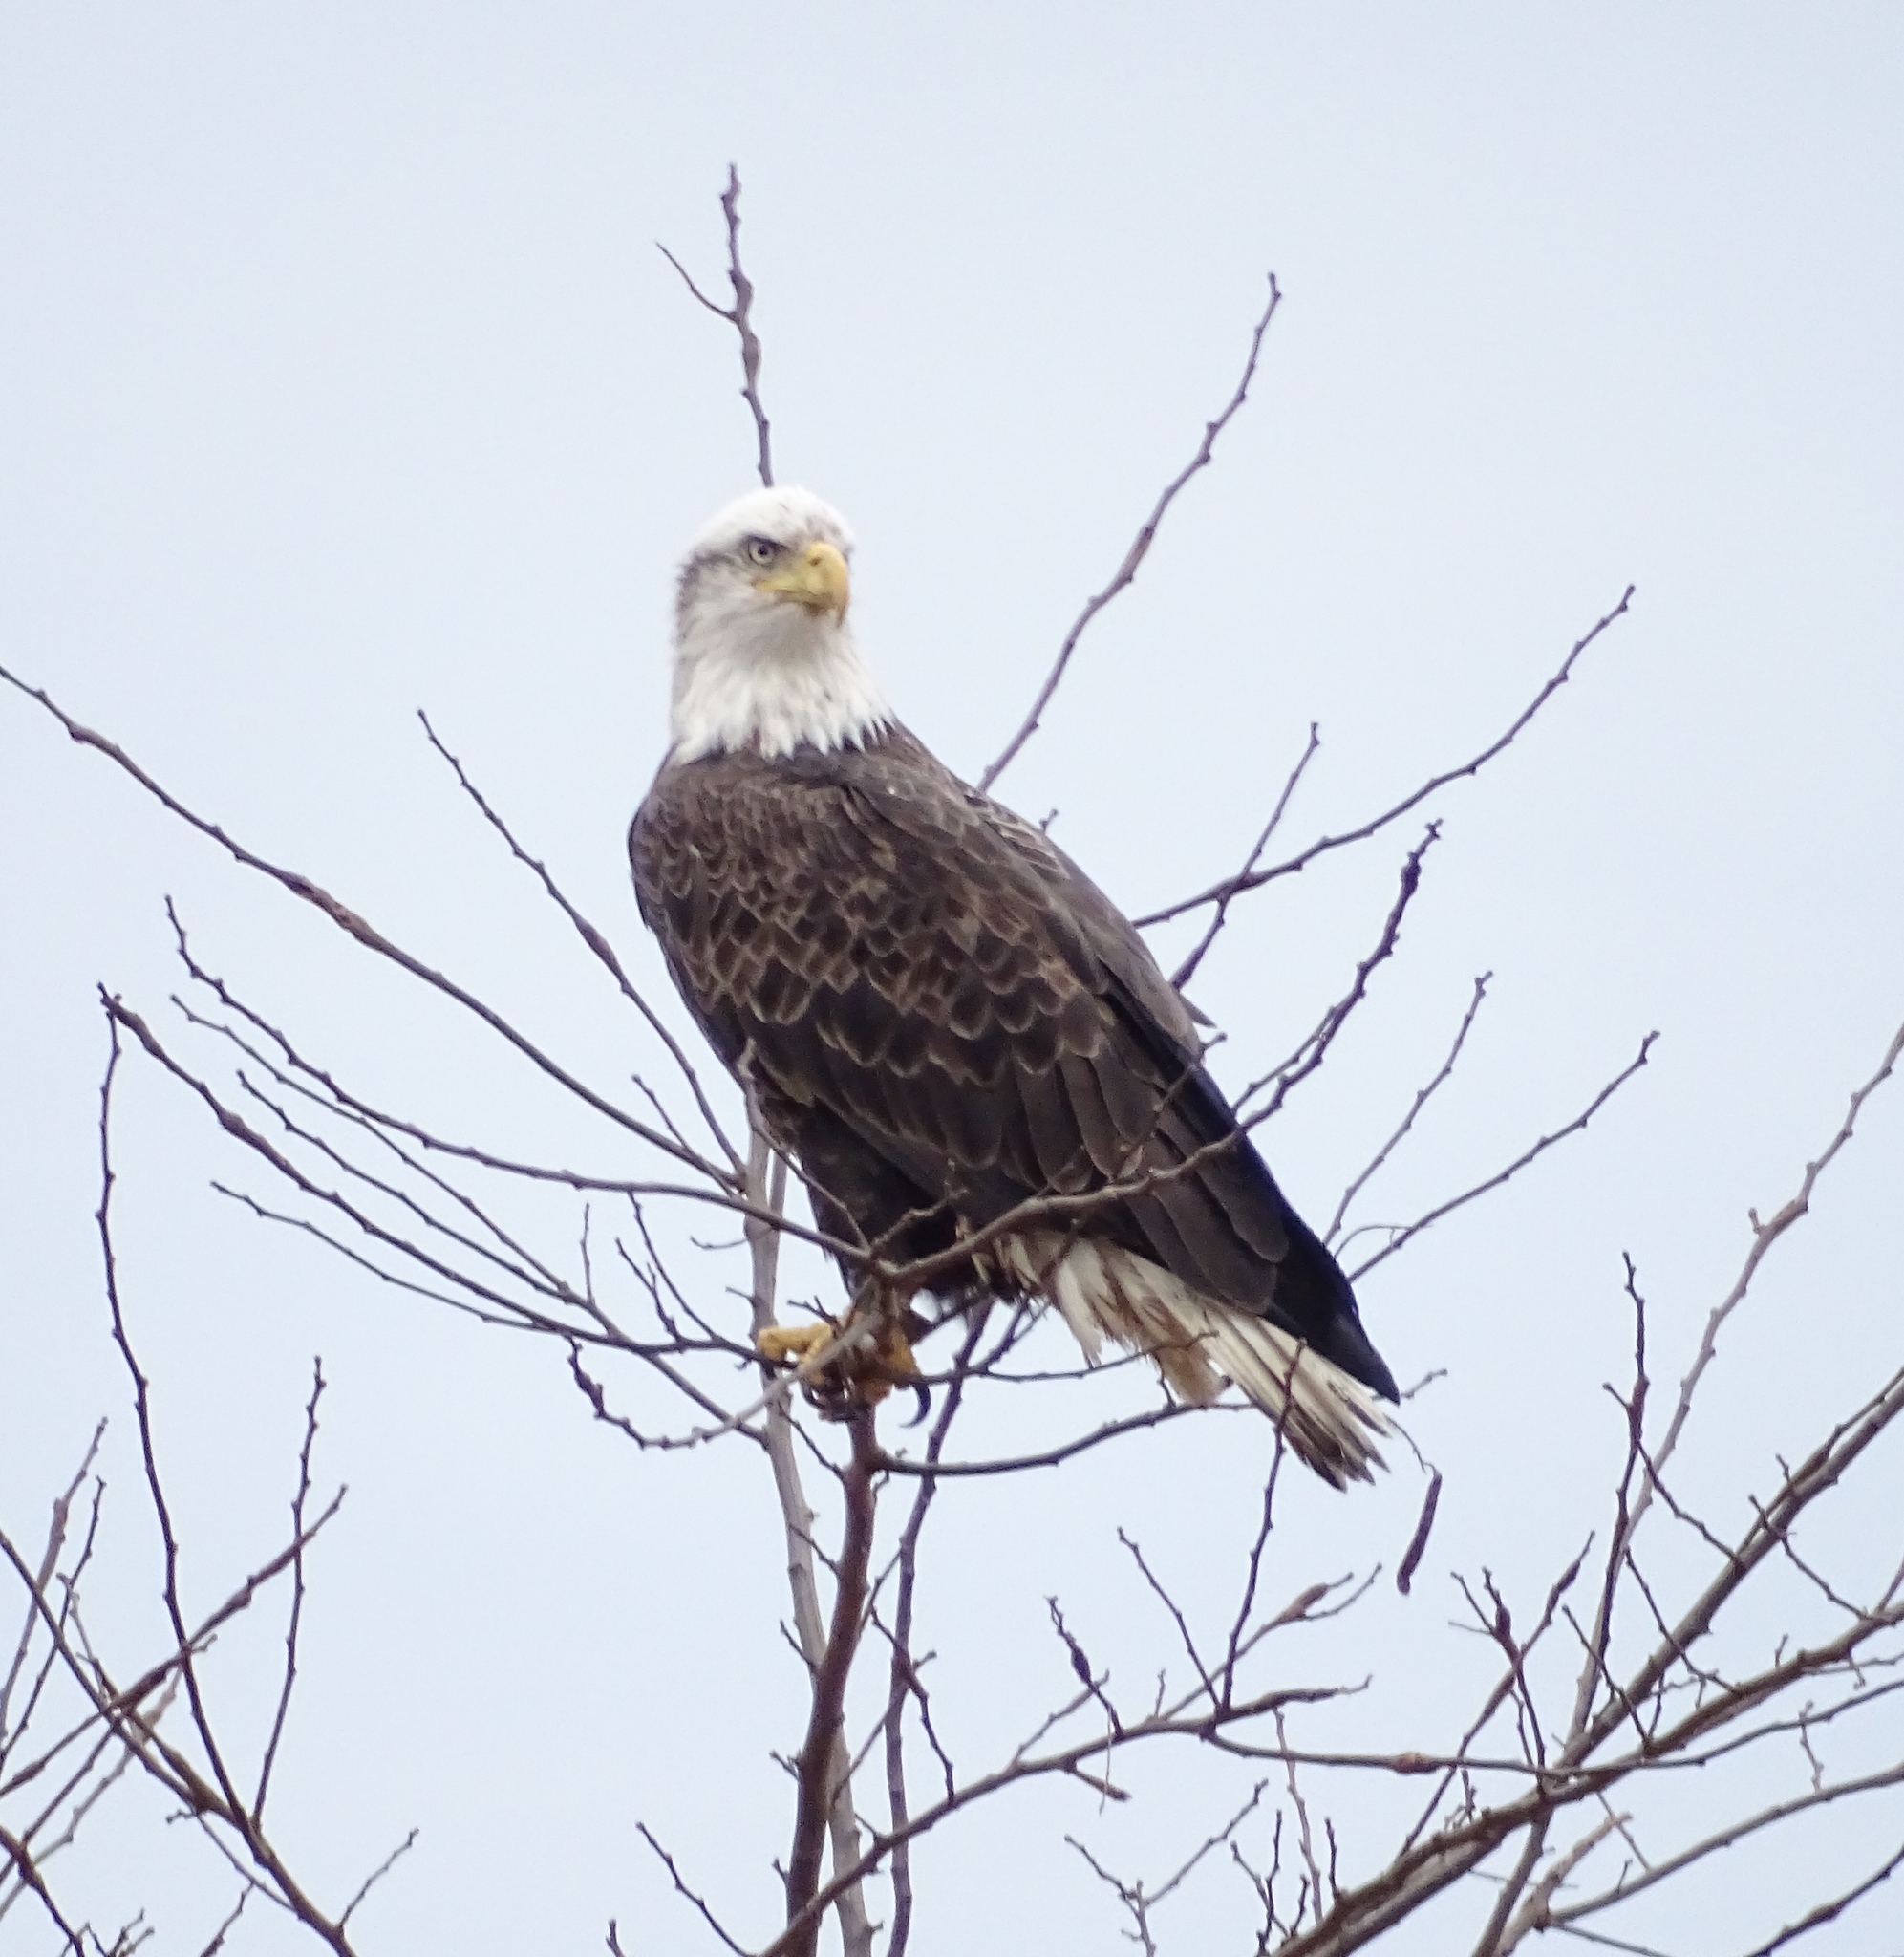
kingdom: Animalia
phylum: Chordata
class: Aves
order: Accipitriformes
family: Accipitridae
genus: Haliaeetus
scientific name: Haliaeetus leucocephalus
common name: Bald eagle
